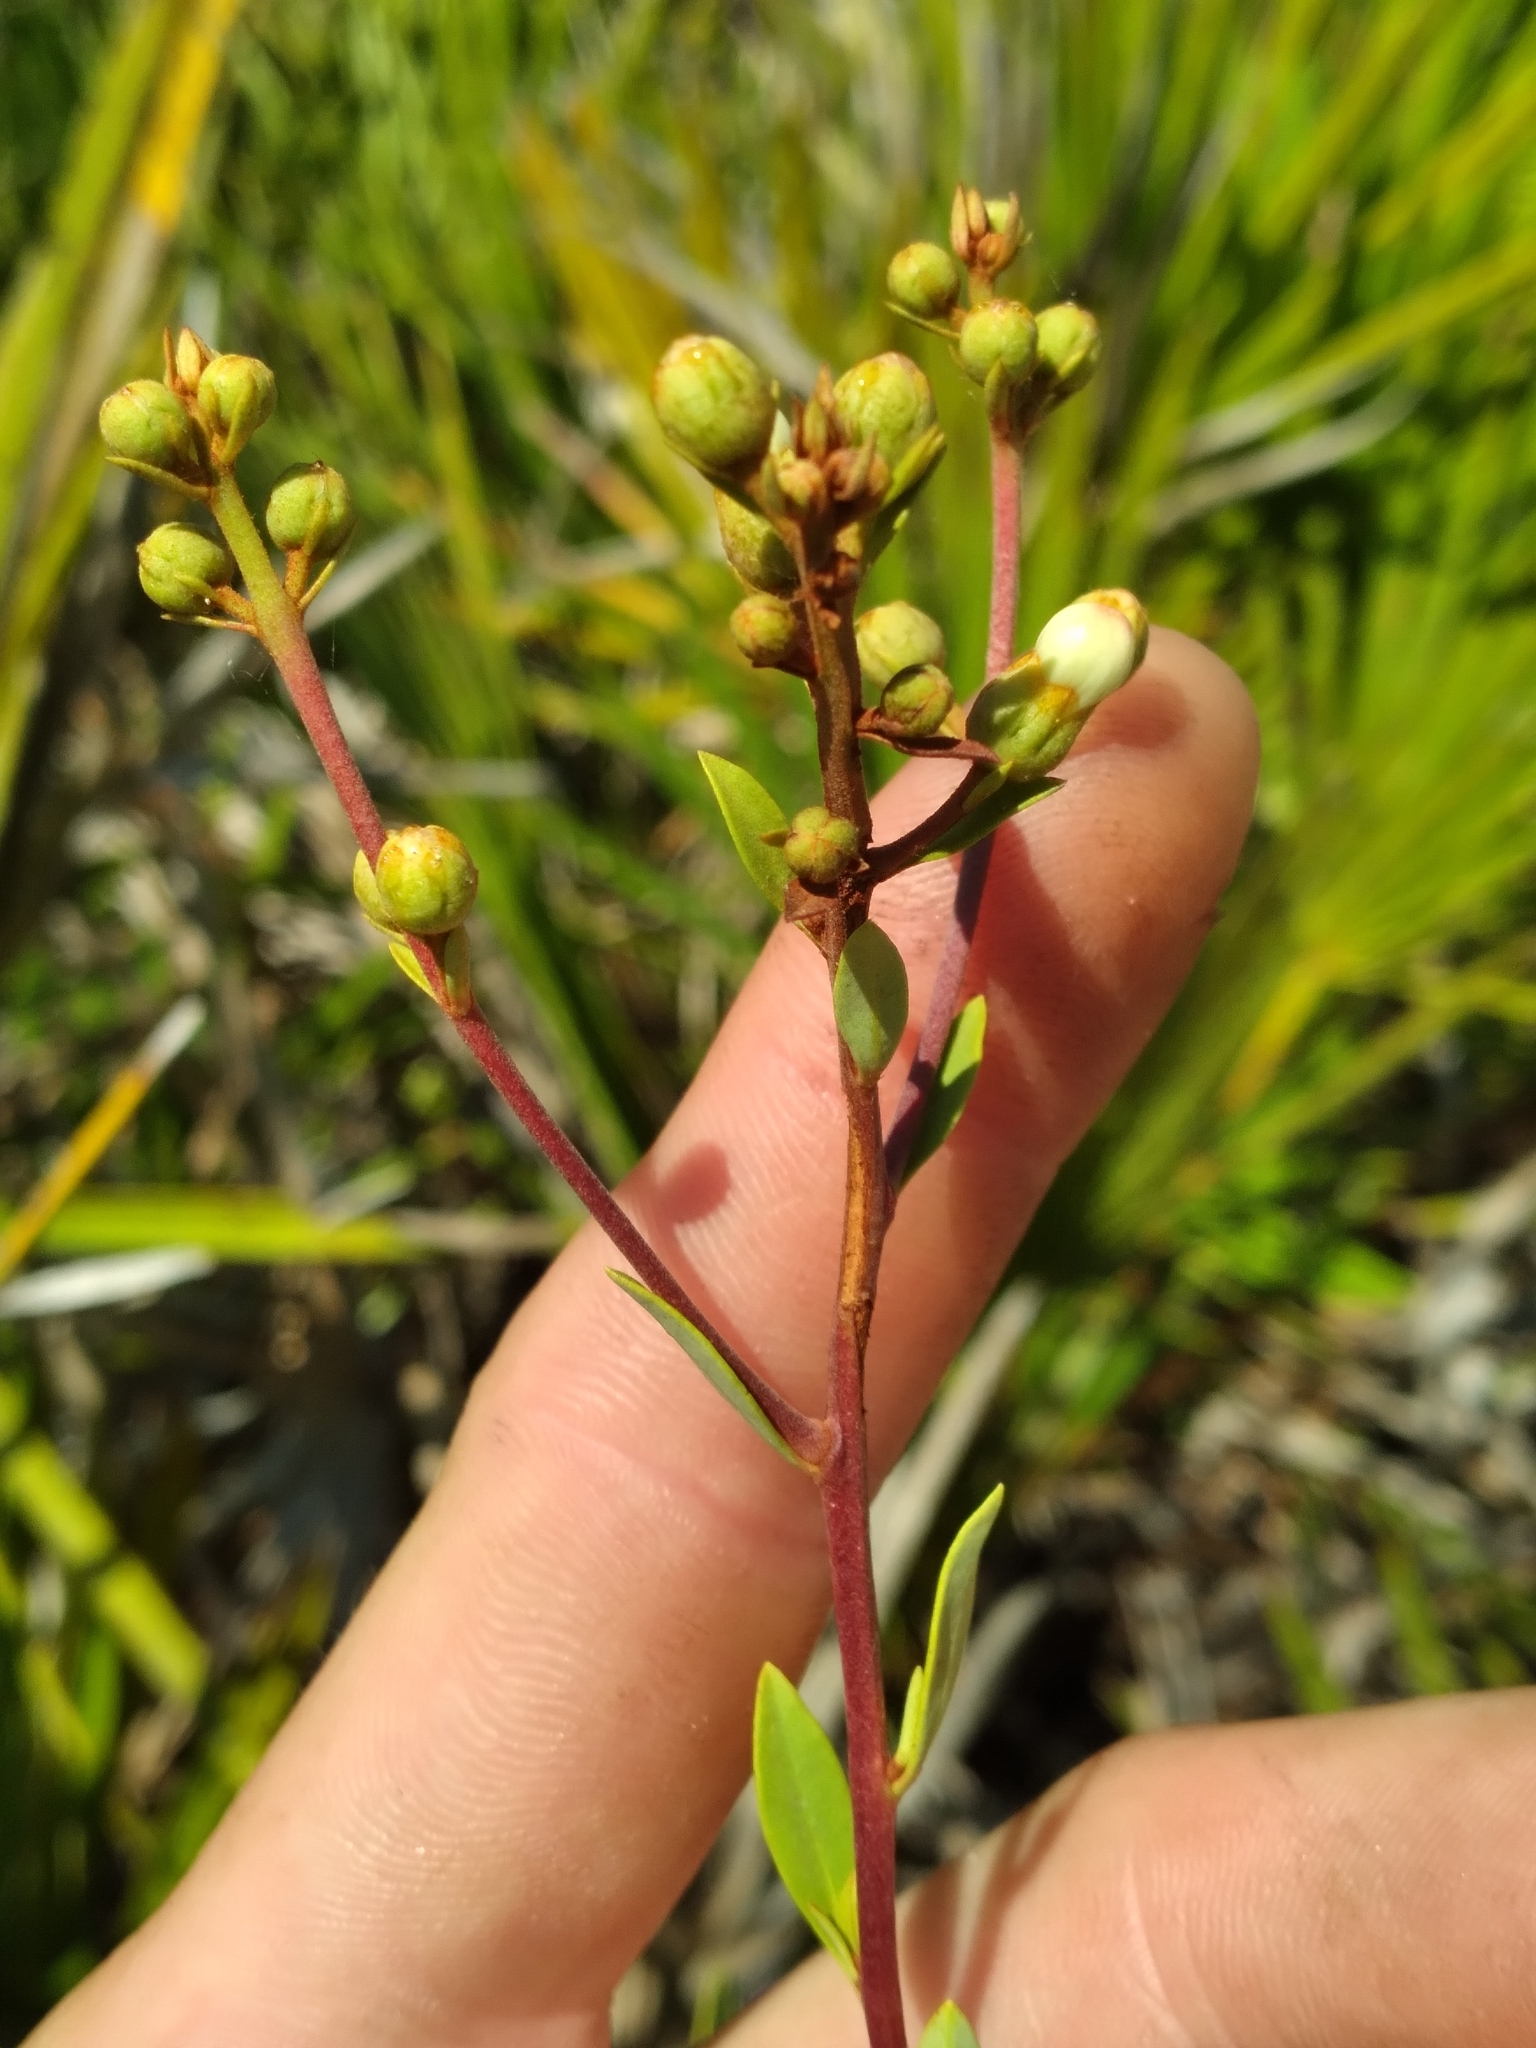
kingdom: Plantae
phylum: Tracheophyta
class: Magnoliopsida
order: Ericales
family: Ericaceae
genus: Bejaria
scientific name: Bejaria racemosa
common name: Tarflower
